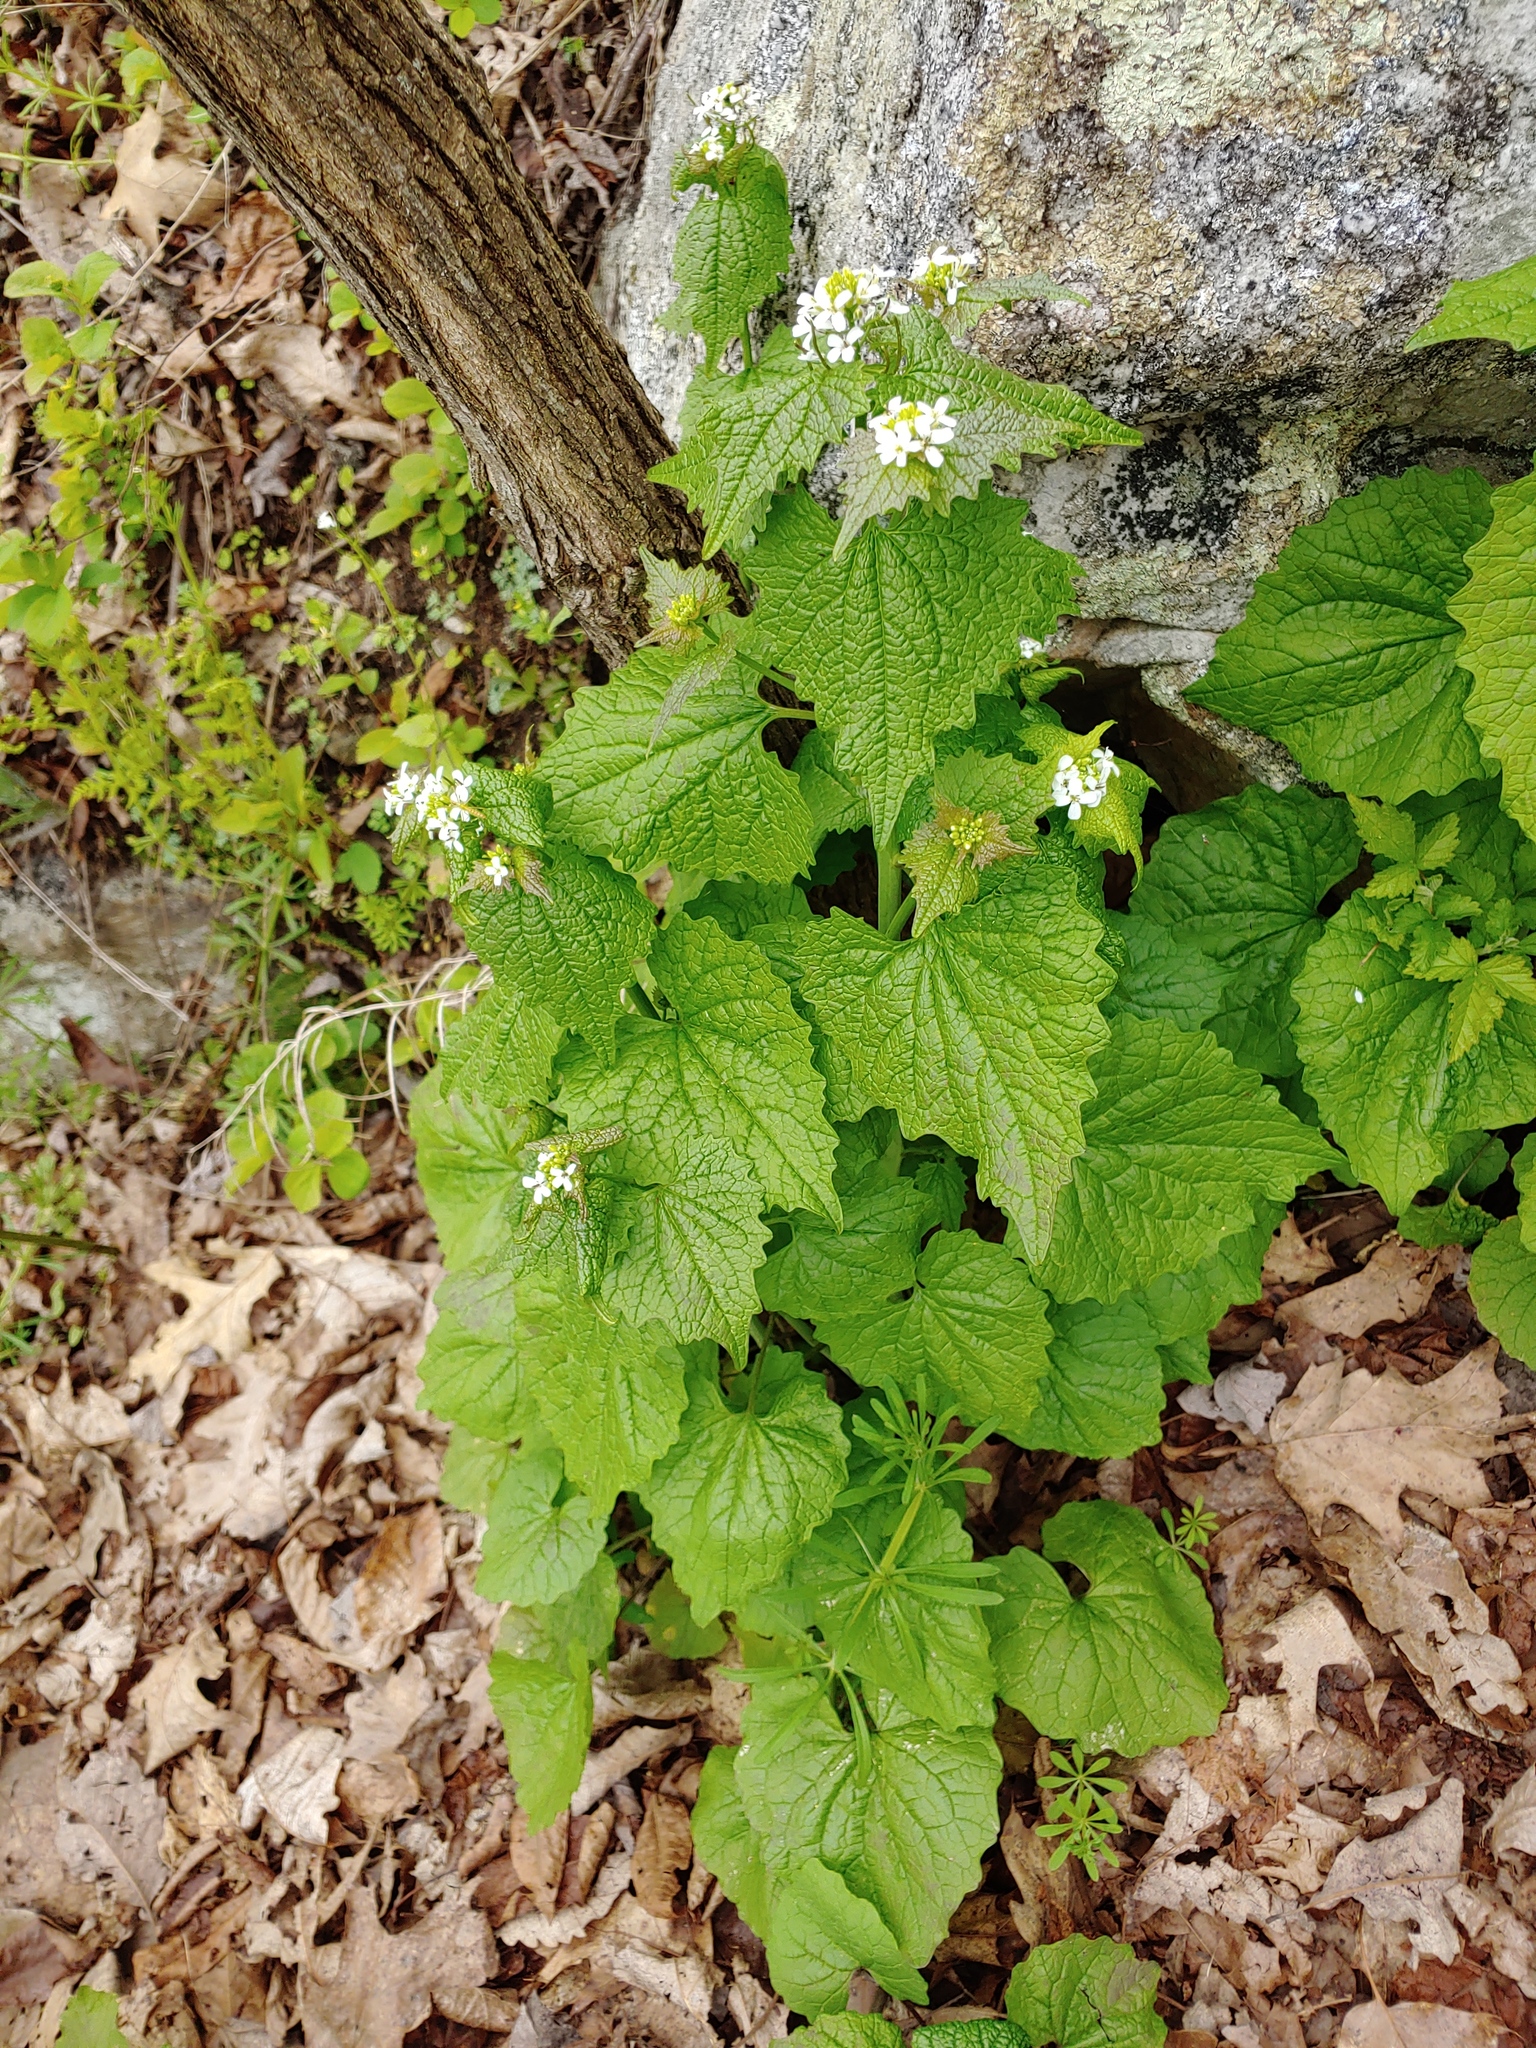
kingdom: Plantae
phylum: Tracheophyta
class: Magnoliopsida
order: Brassicales
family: Brassicaceae
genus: Alliaria
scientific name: Alliaria petiolata
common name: Garlic mustard
